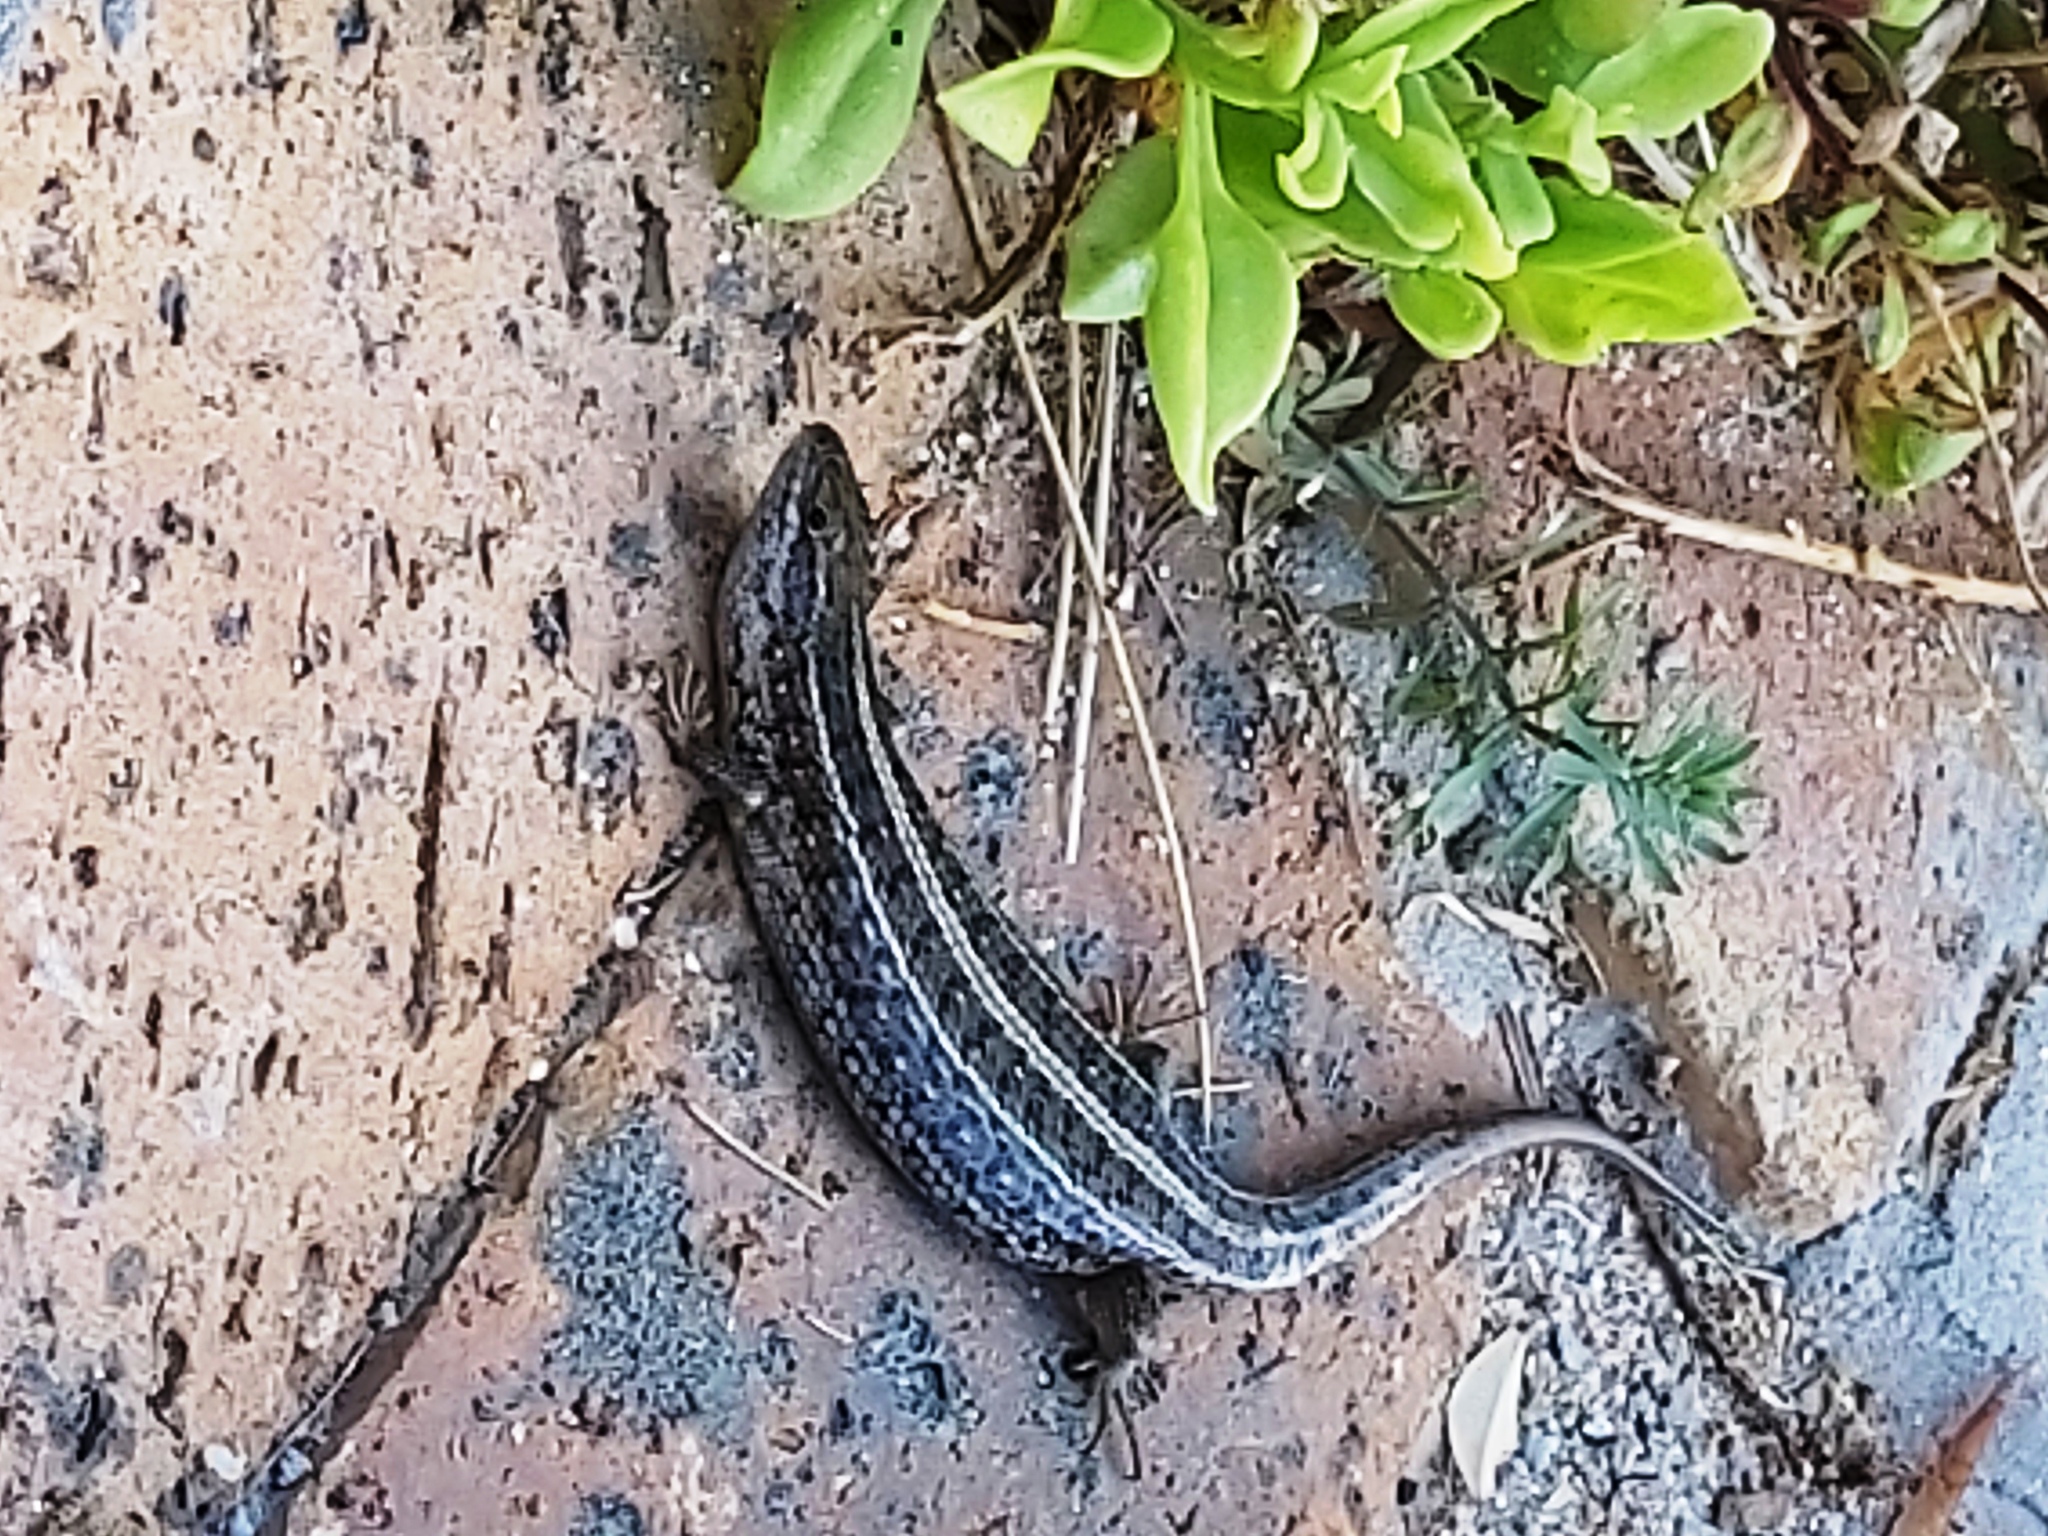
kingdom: Animalia
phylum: Chordata
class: Squamata
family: Scincidae
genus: Trachylepis
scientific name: Trachylepis capensis
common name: Cape skink
